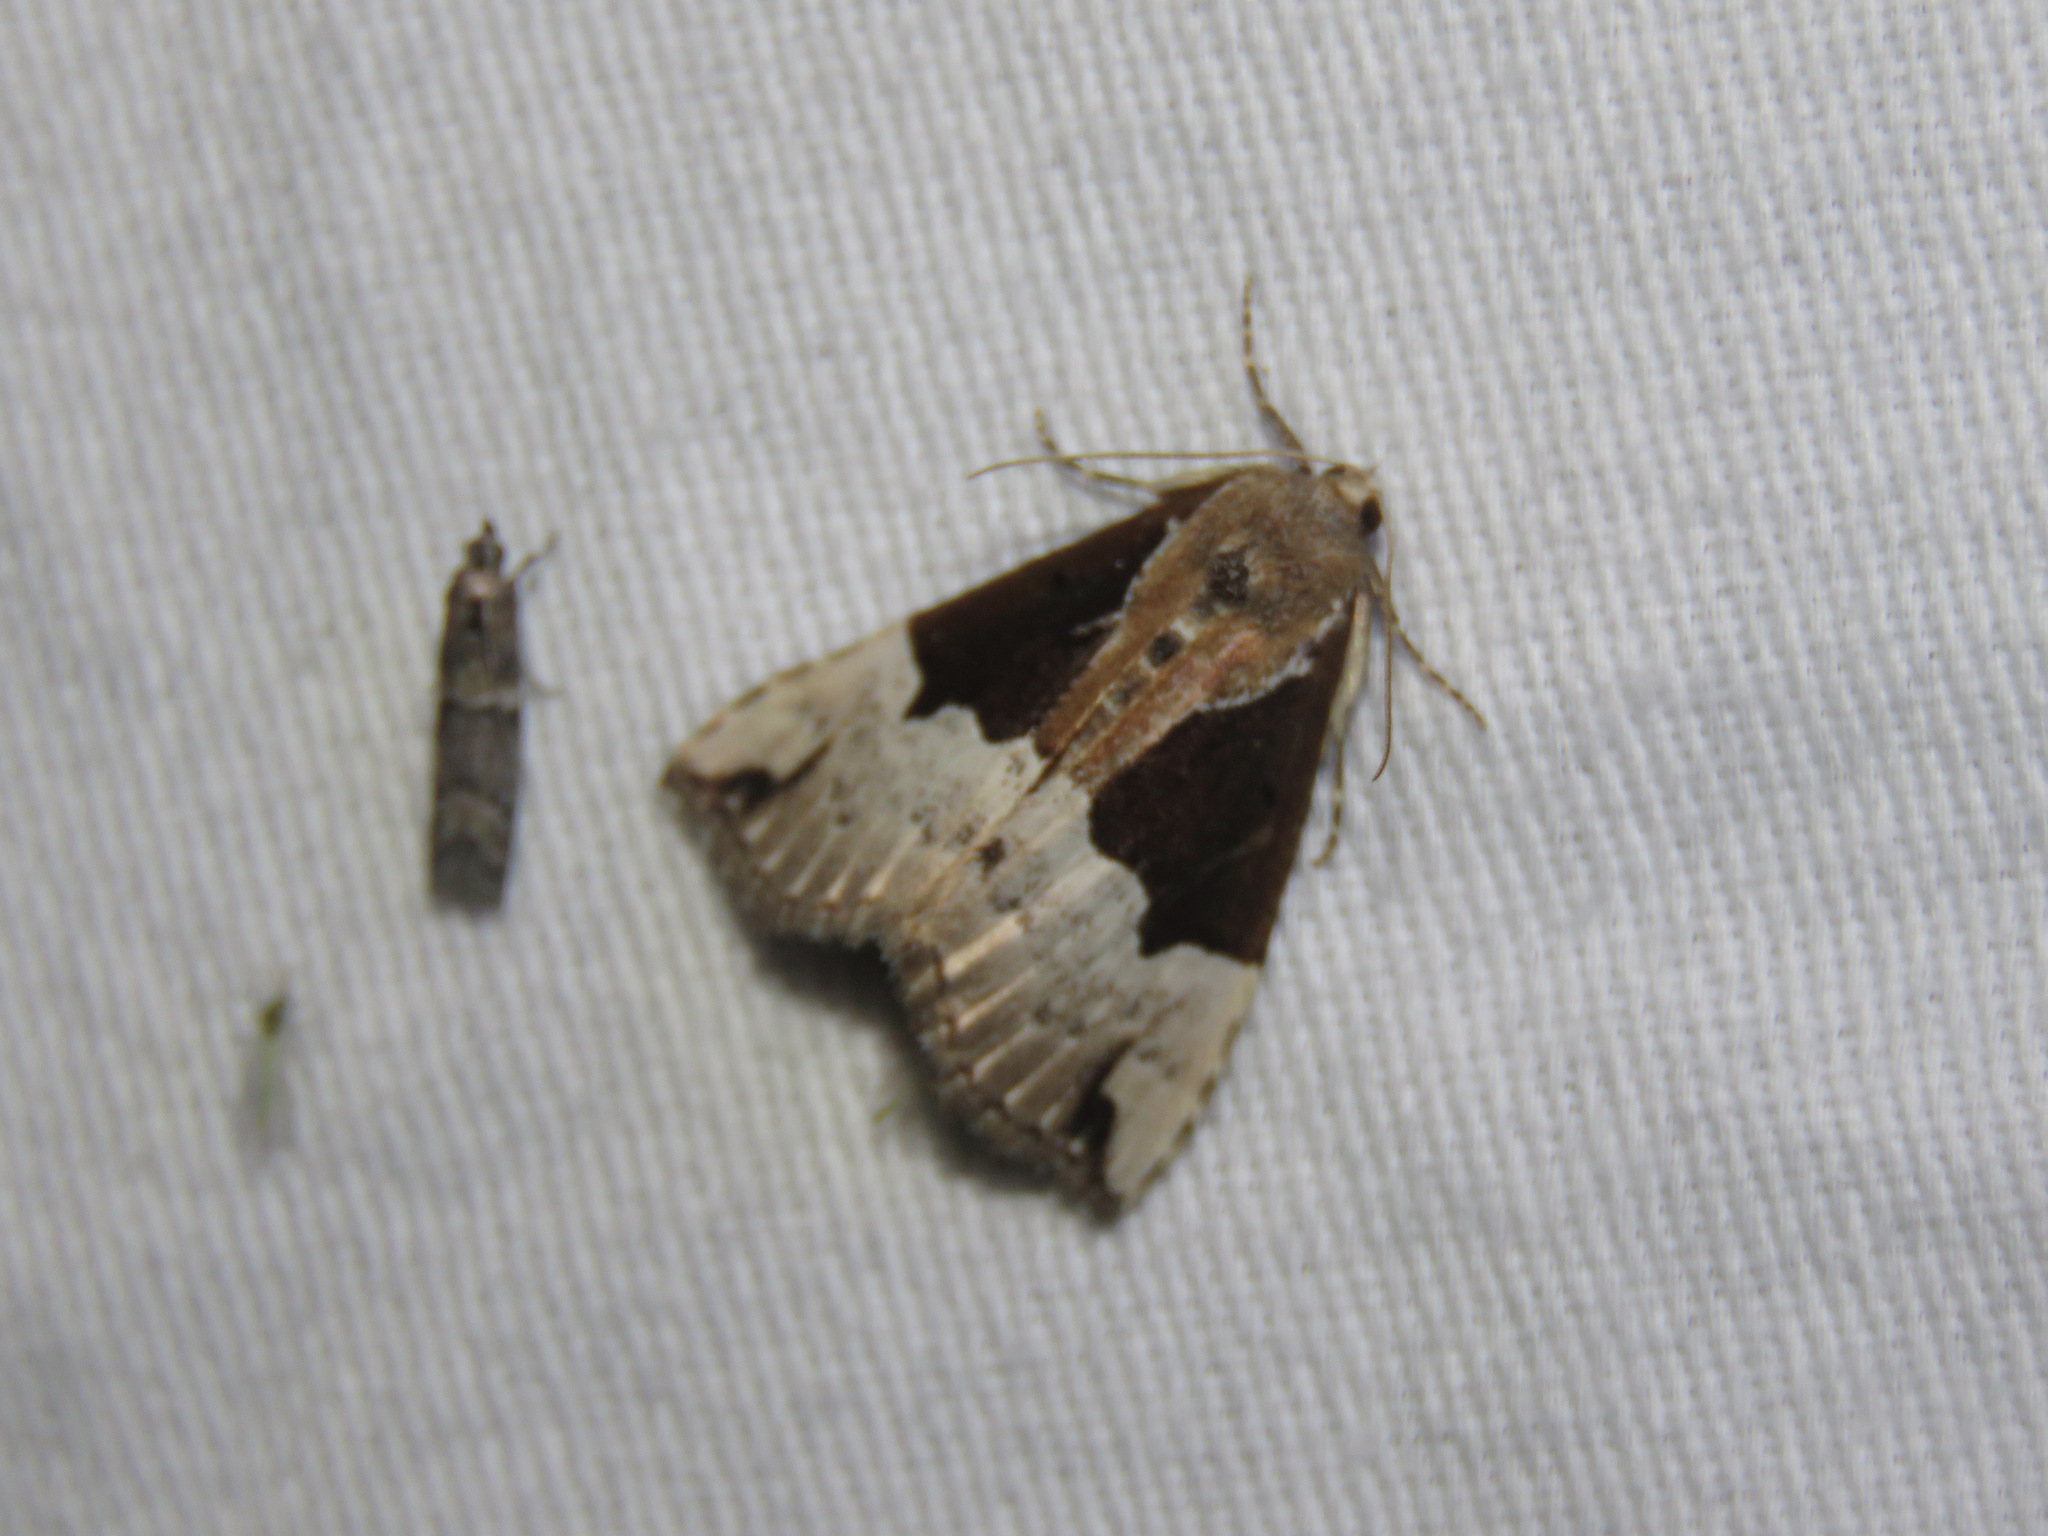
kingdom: Animalia
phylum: Arthropoda
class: Insecta
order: Lepidoptera
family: Erebidae
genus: Hypena
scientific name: Hypena bijugalis
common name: Dimorphic bomolocha moth
